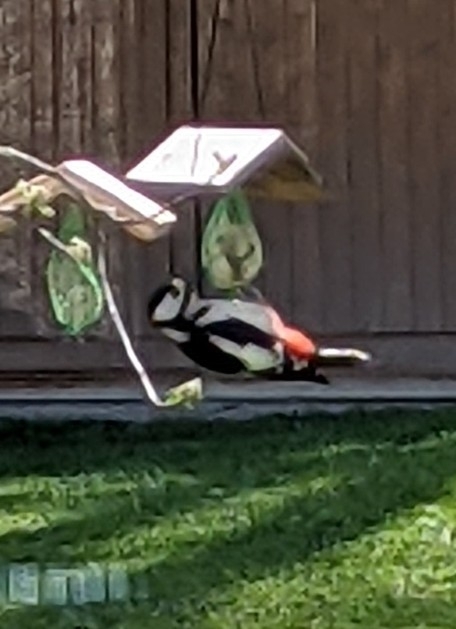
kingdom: Animalia
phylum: Chordata
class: Aves
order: Piciformes
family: Picidae
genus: Dendrocopos
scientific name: Dendrocopos major
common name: Great spotted woodpecker
